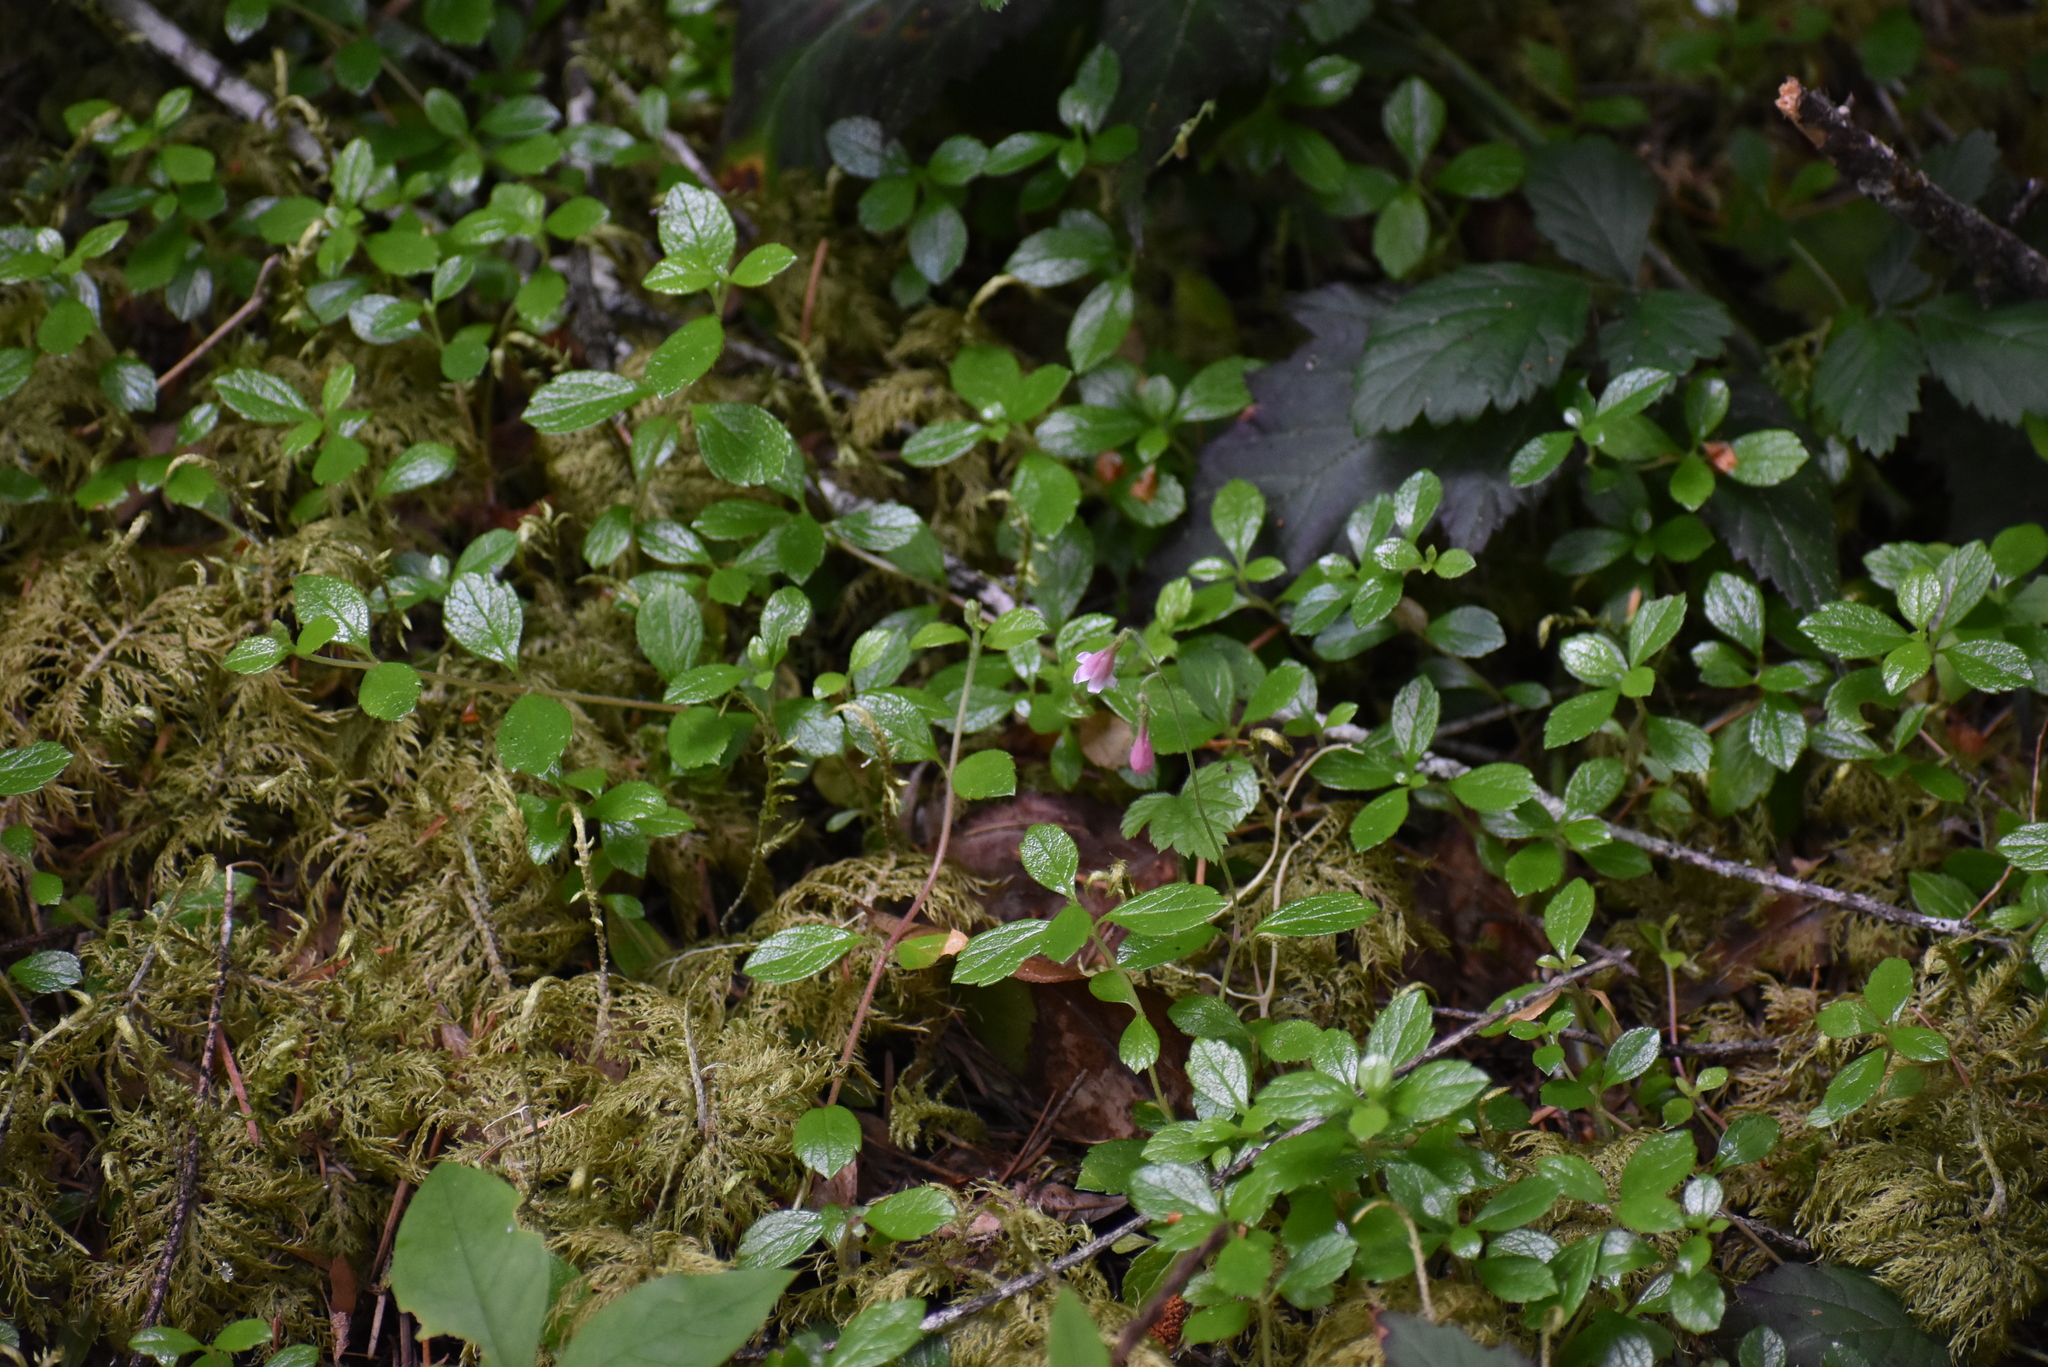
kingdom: Plantae
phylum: Tracheophyta
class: Magnoliopsida
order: Dipsacales
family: Caprifoliaceae
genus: Linnaea
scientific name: Linnaea borealis
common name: Twinflower
